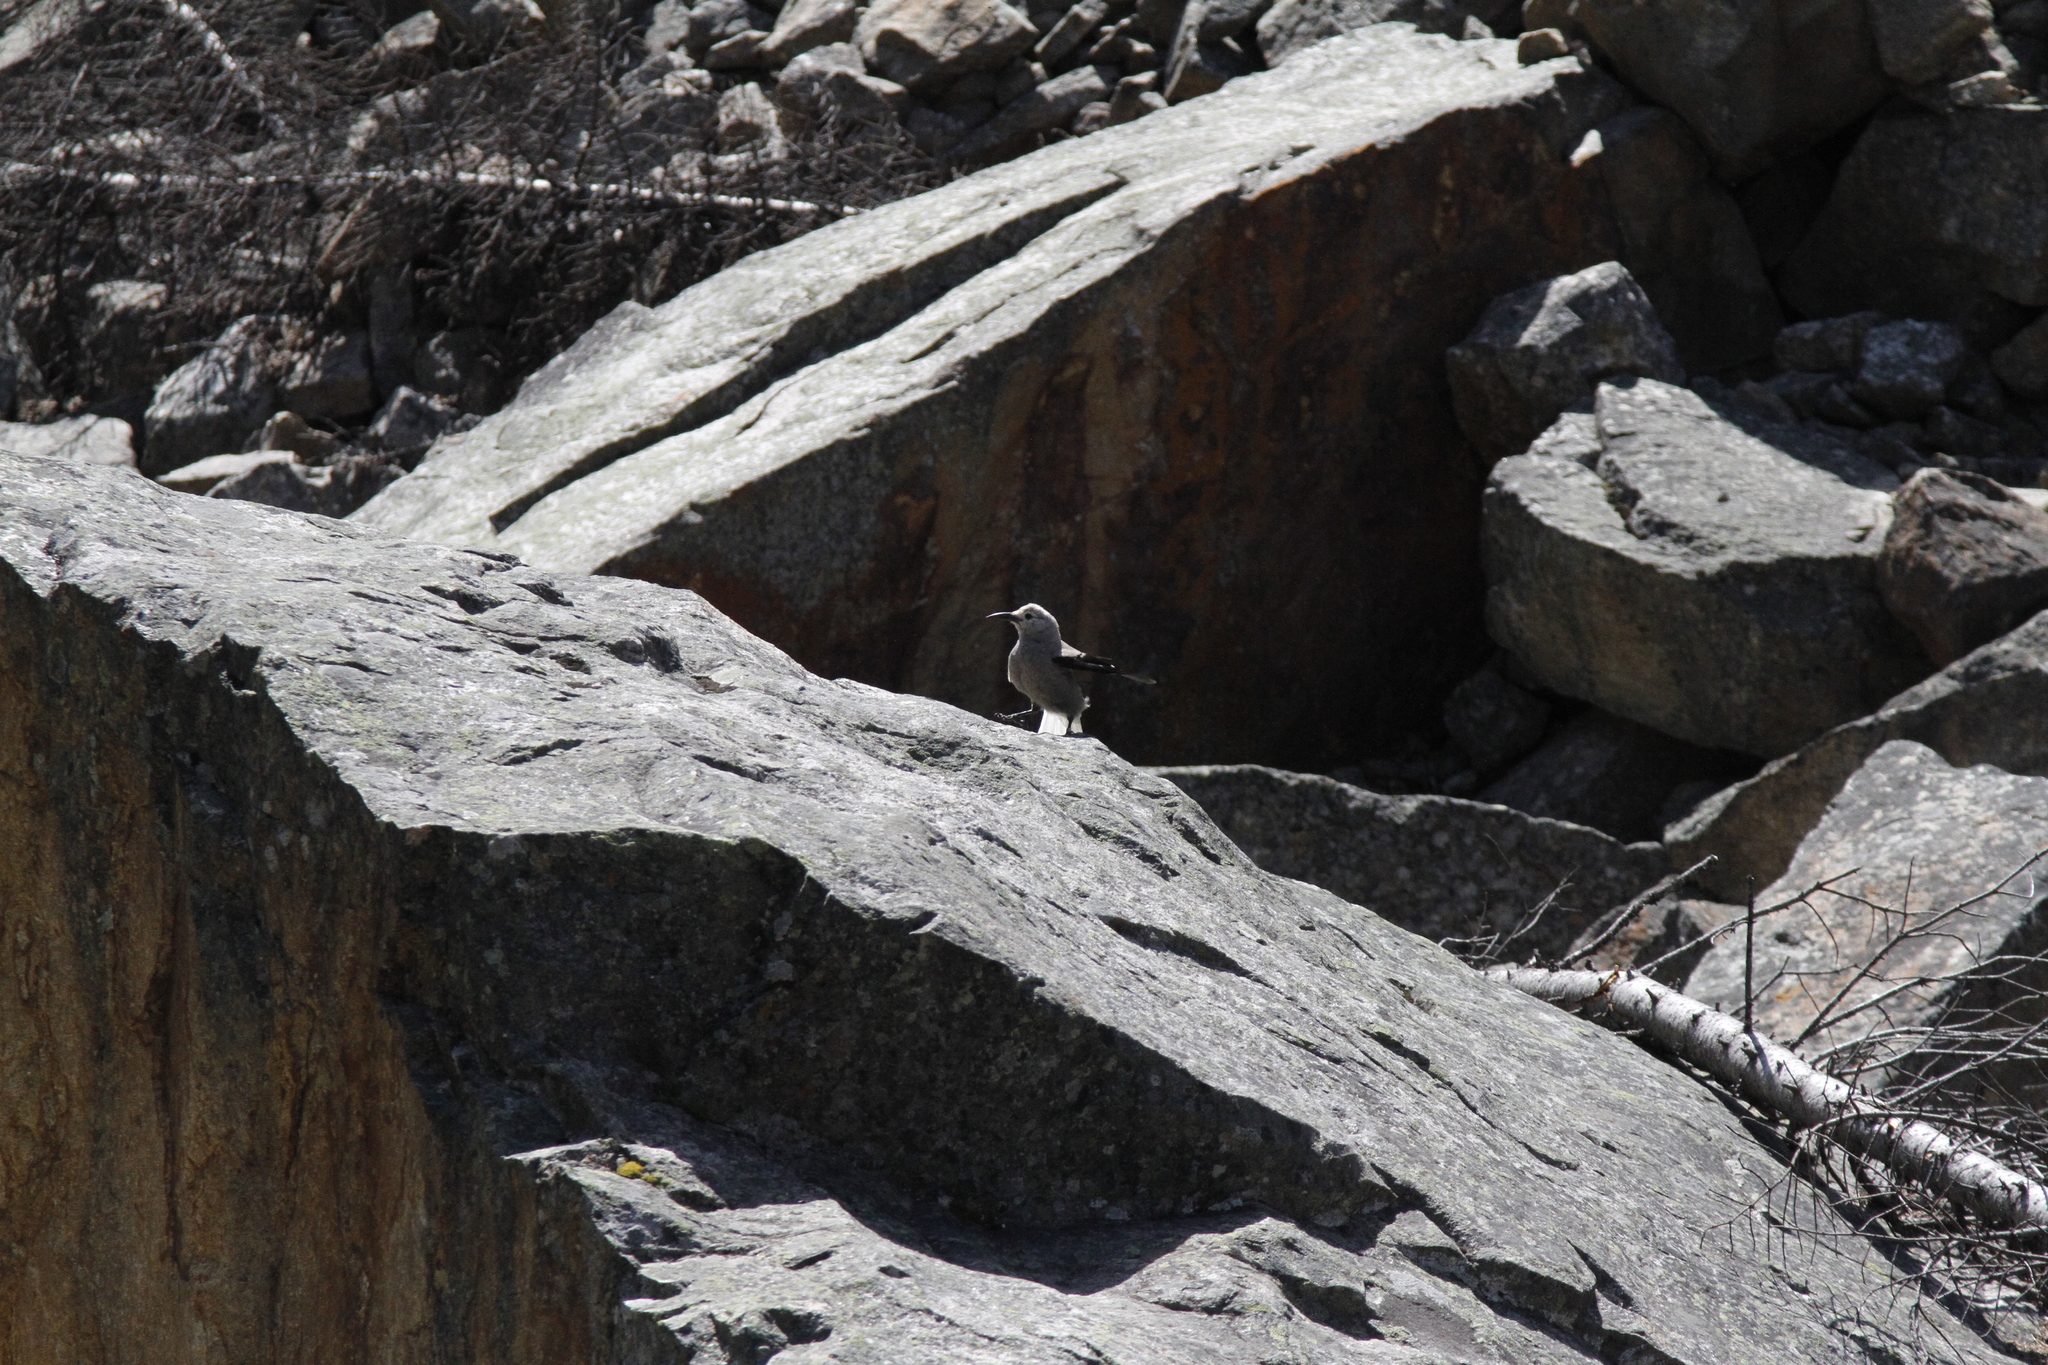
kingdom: Animalia
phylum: Chordata
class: Aves
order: Passeriformes
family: Corvidae
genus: Nucifraga
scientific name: Nucifraga columbiana
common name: Clark's nutcracker
